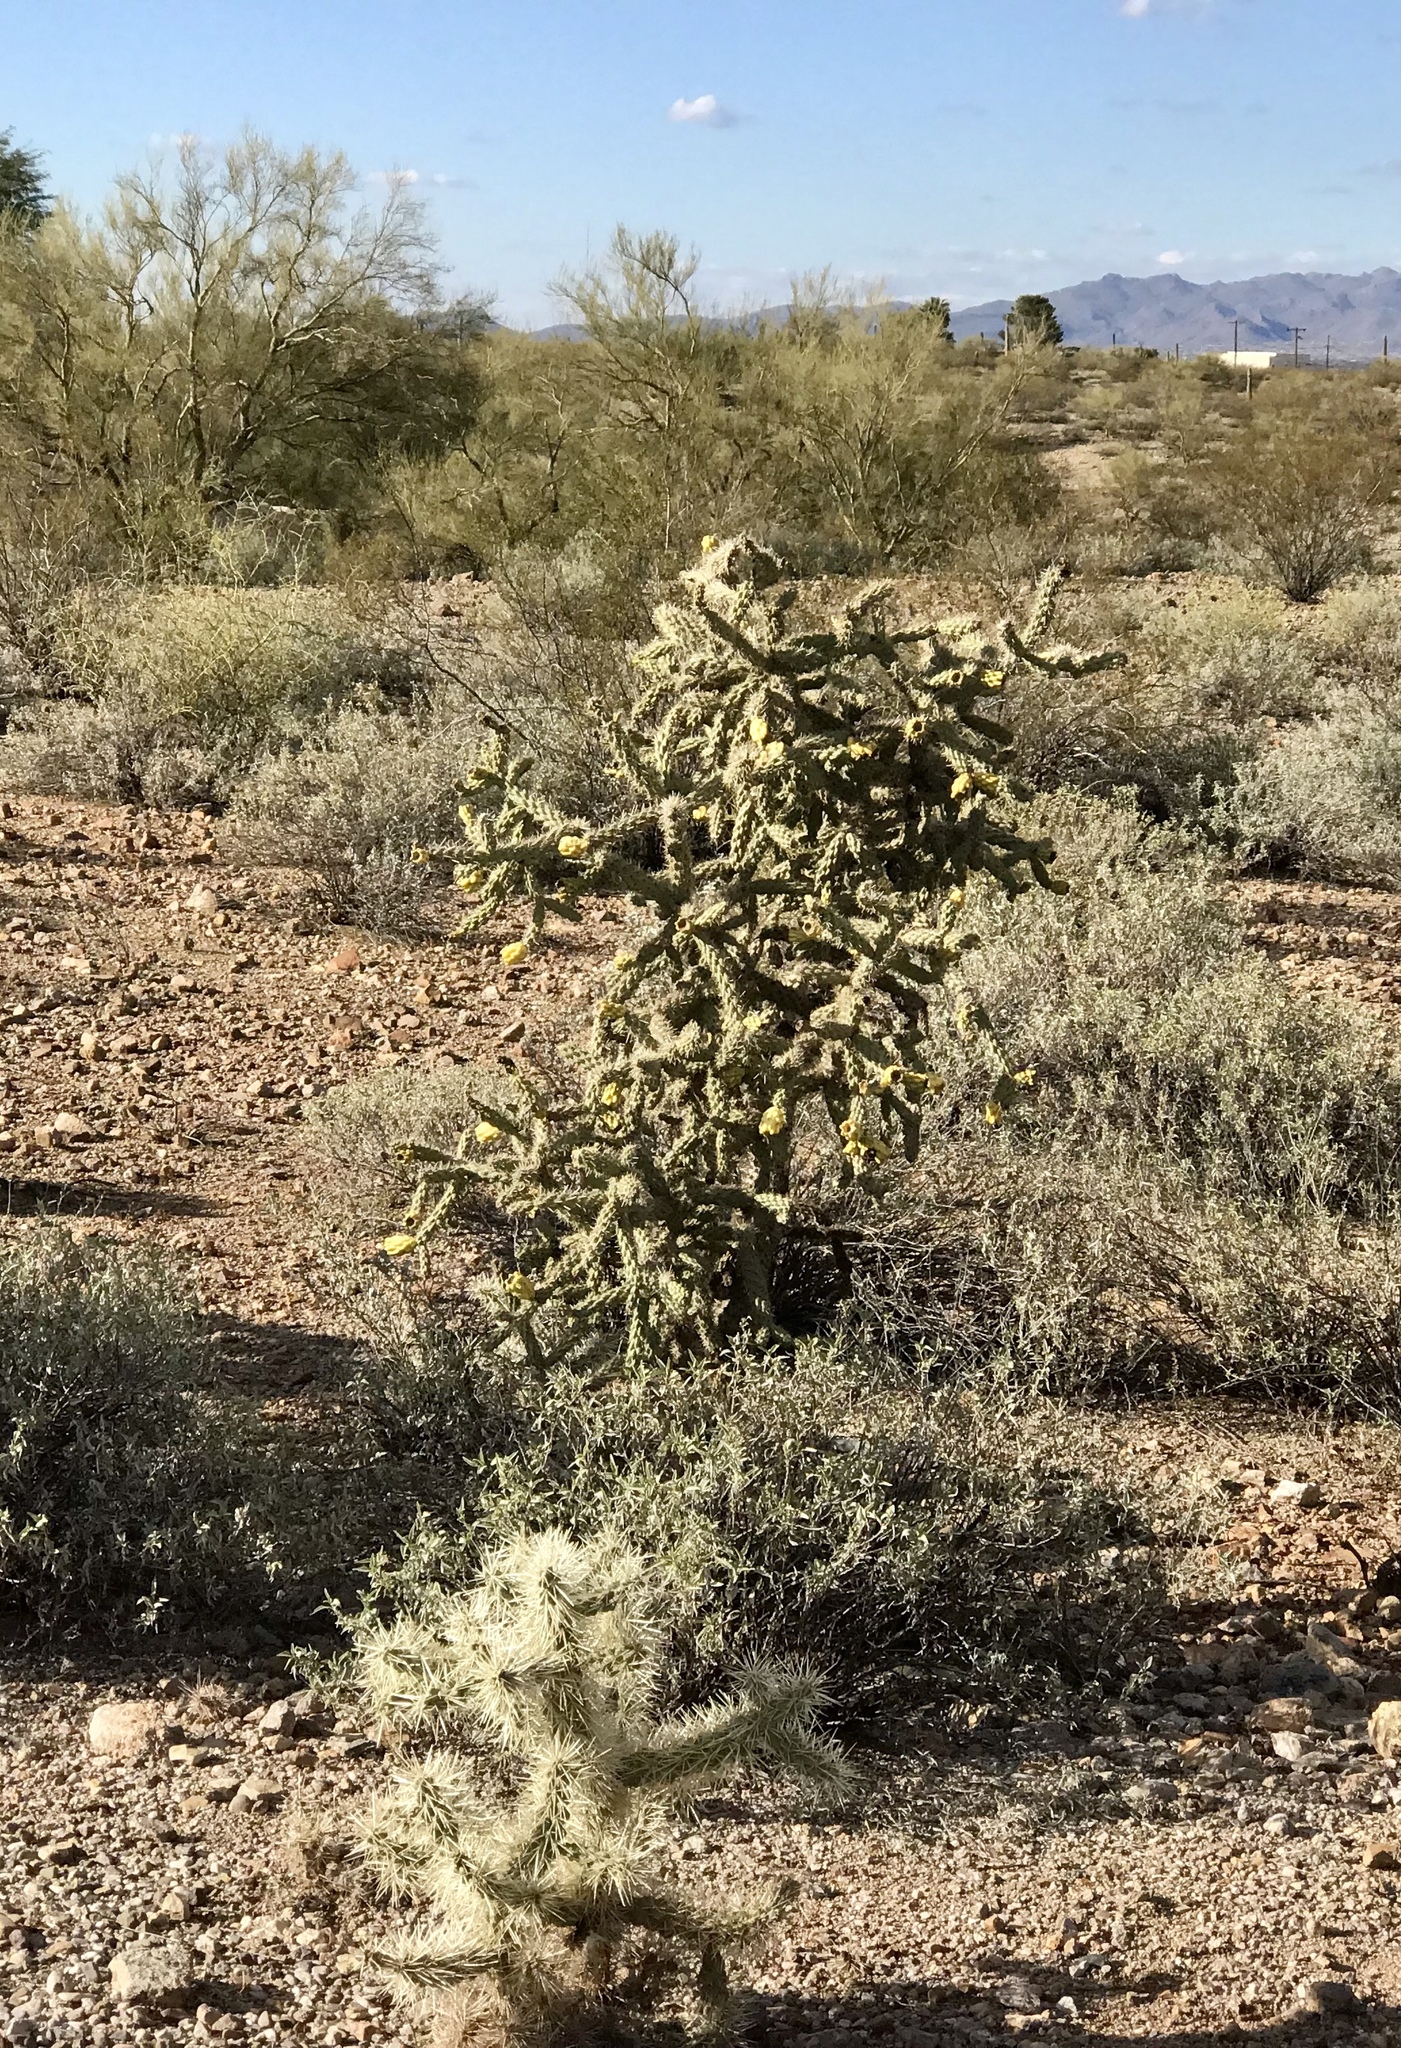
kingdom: Plantae
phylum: Tracheophyta
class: Magnoliopsida
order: Caryophyllales
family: Cactaceae
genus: Cylindropuntia
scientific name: Cylindropuntia fulgida
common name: Jumping cholla
